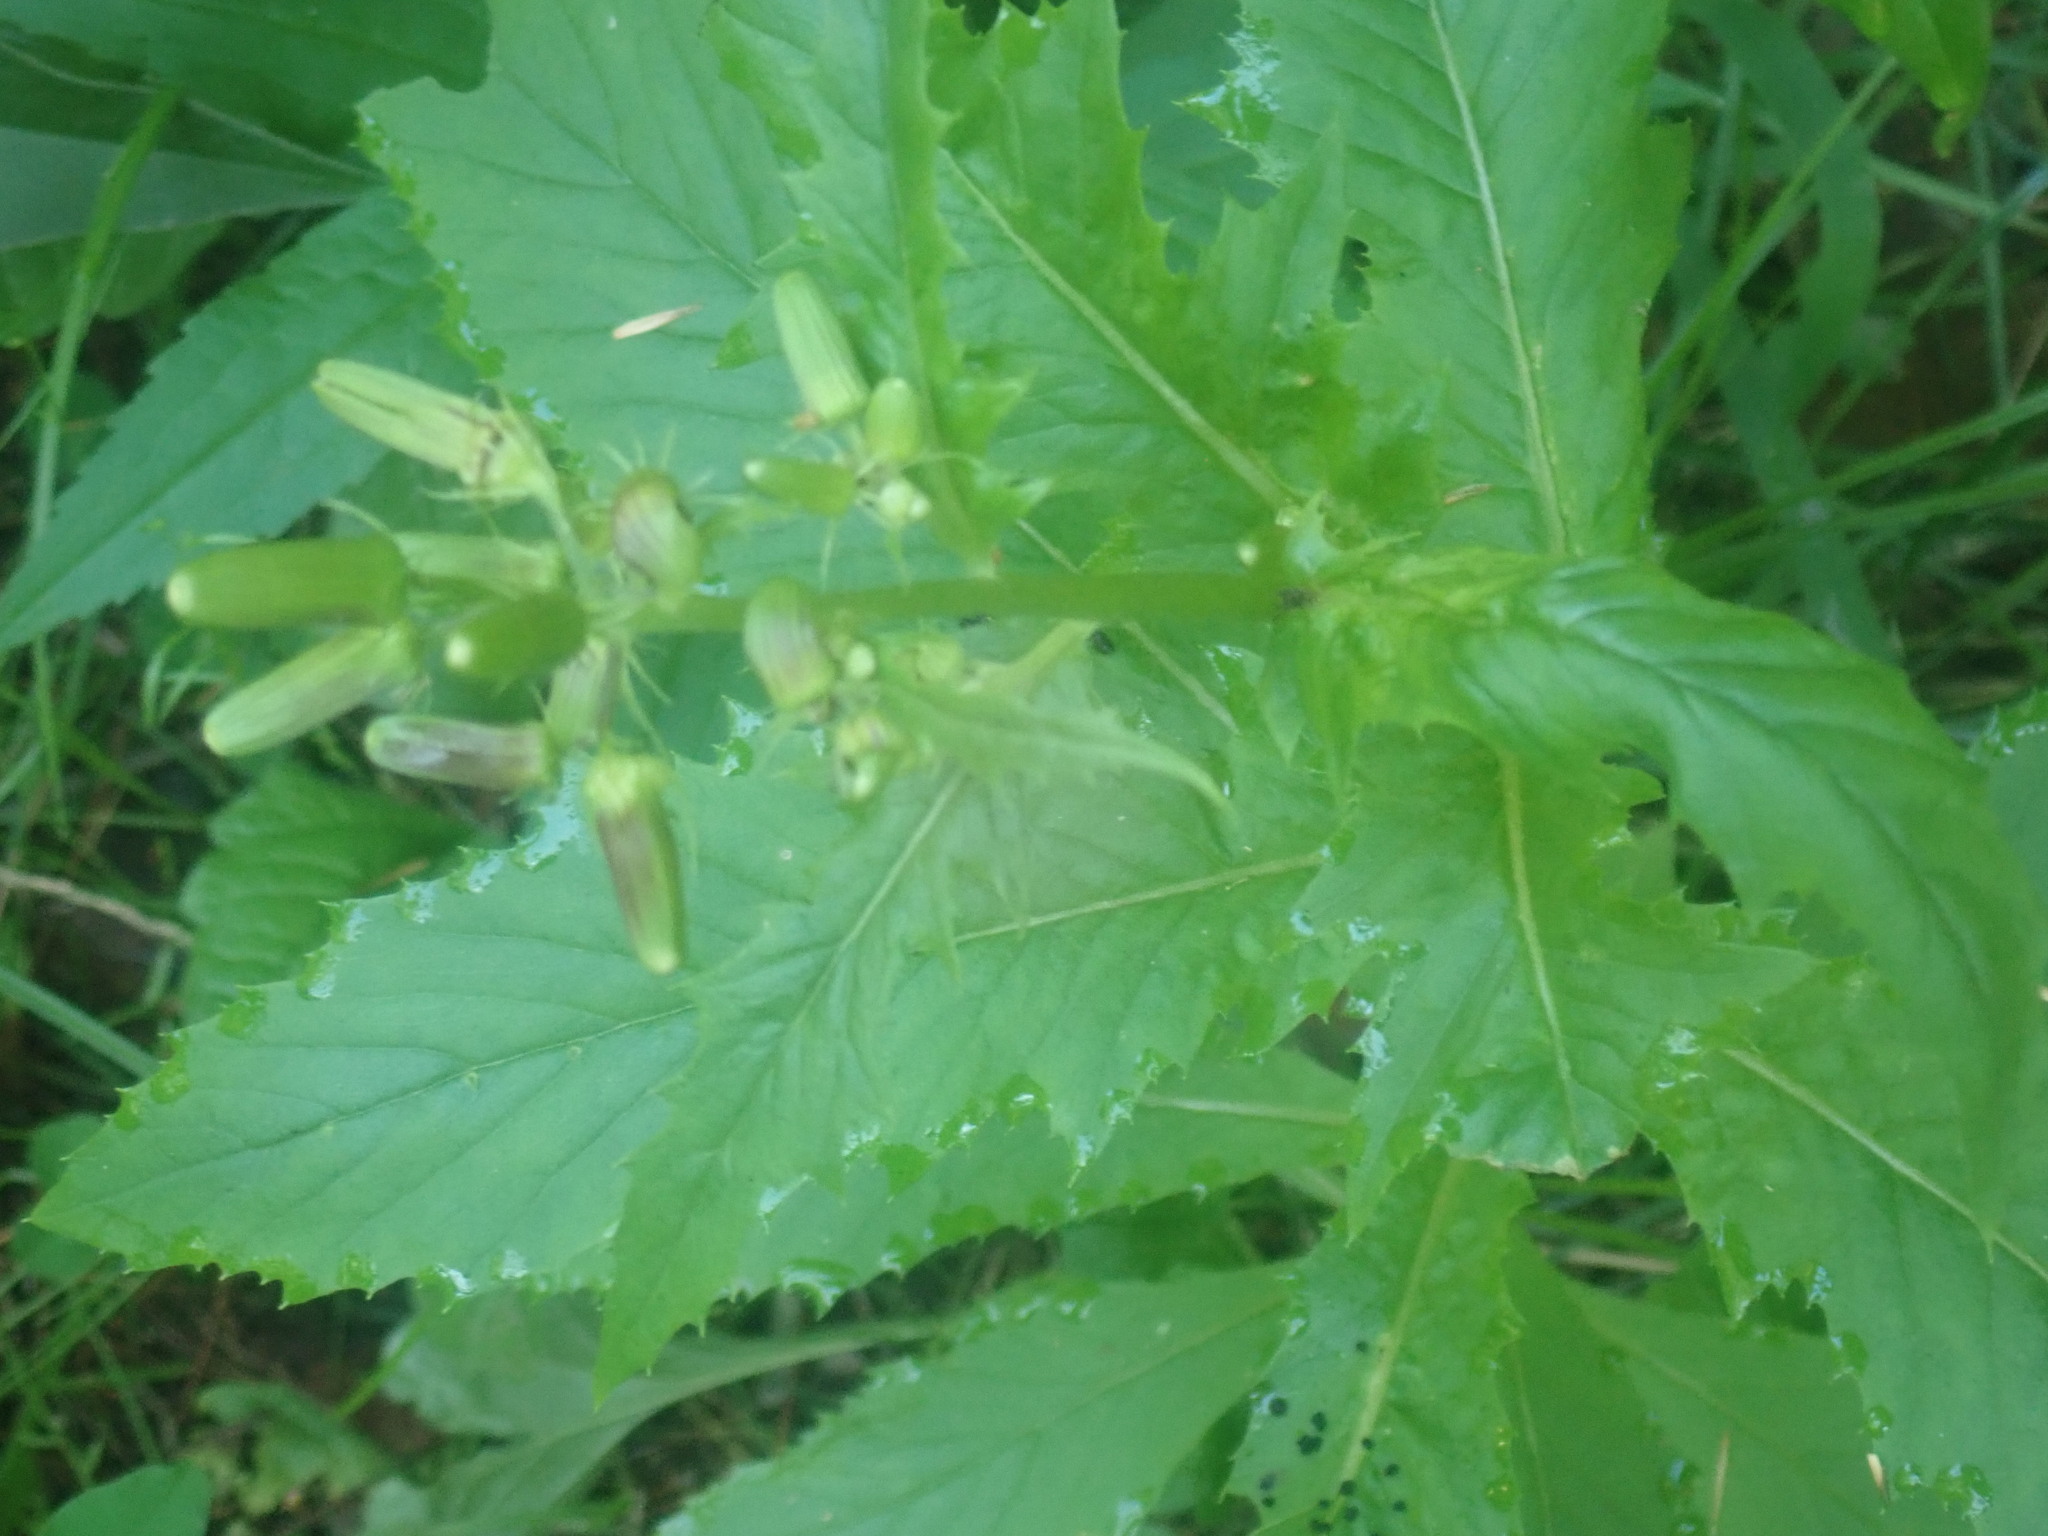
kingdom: Plantae
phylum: Tracheophyta
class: Magnoliopsida
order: Asterales
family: Asteraceae
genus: Erechtites
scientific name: Erechtites hieraciifolius
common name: American burnweed
